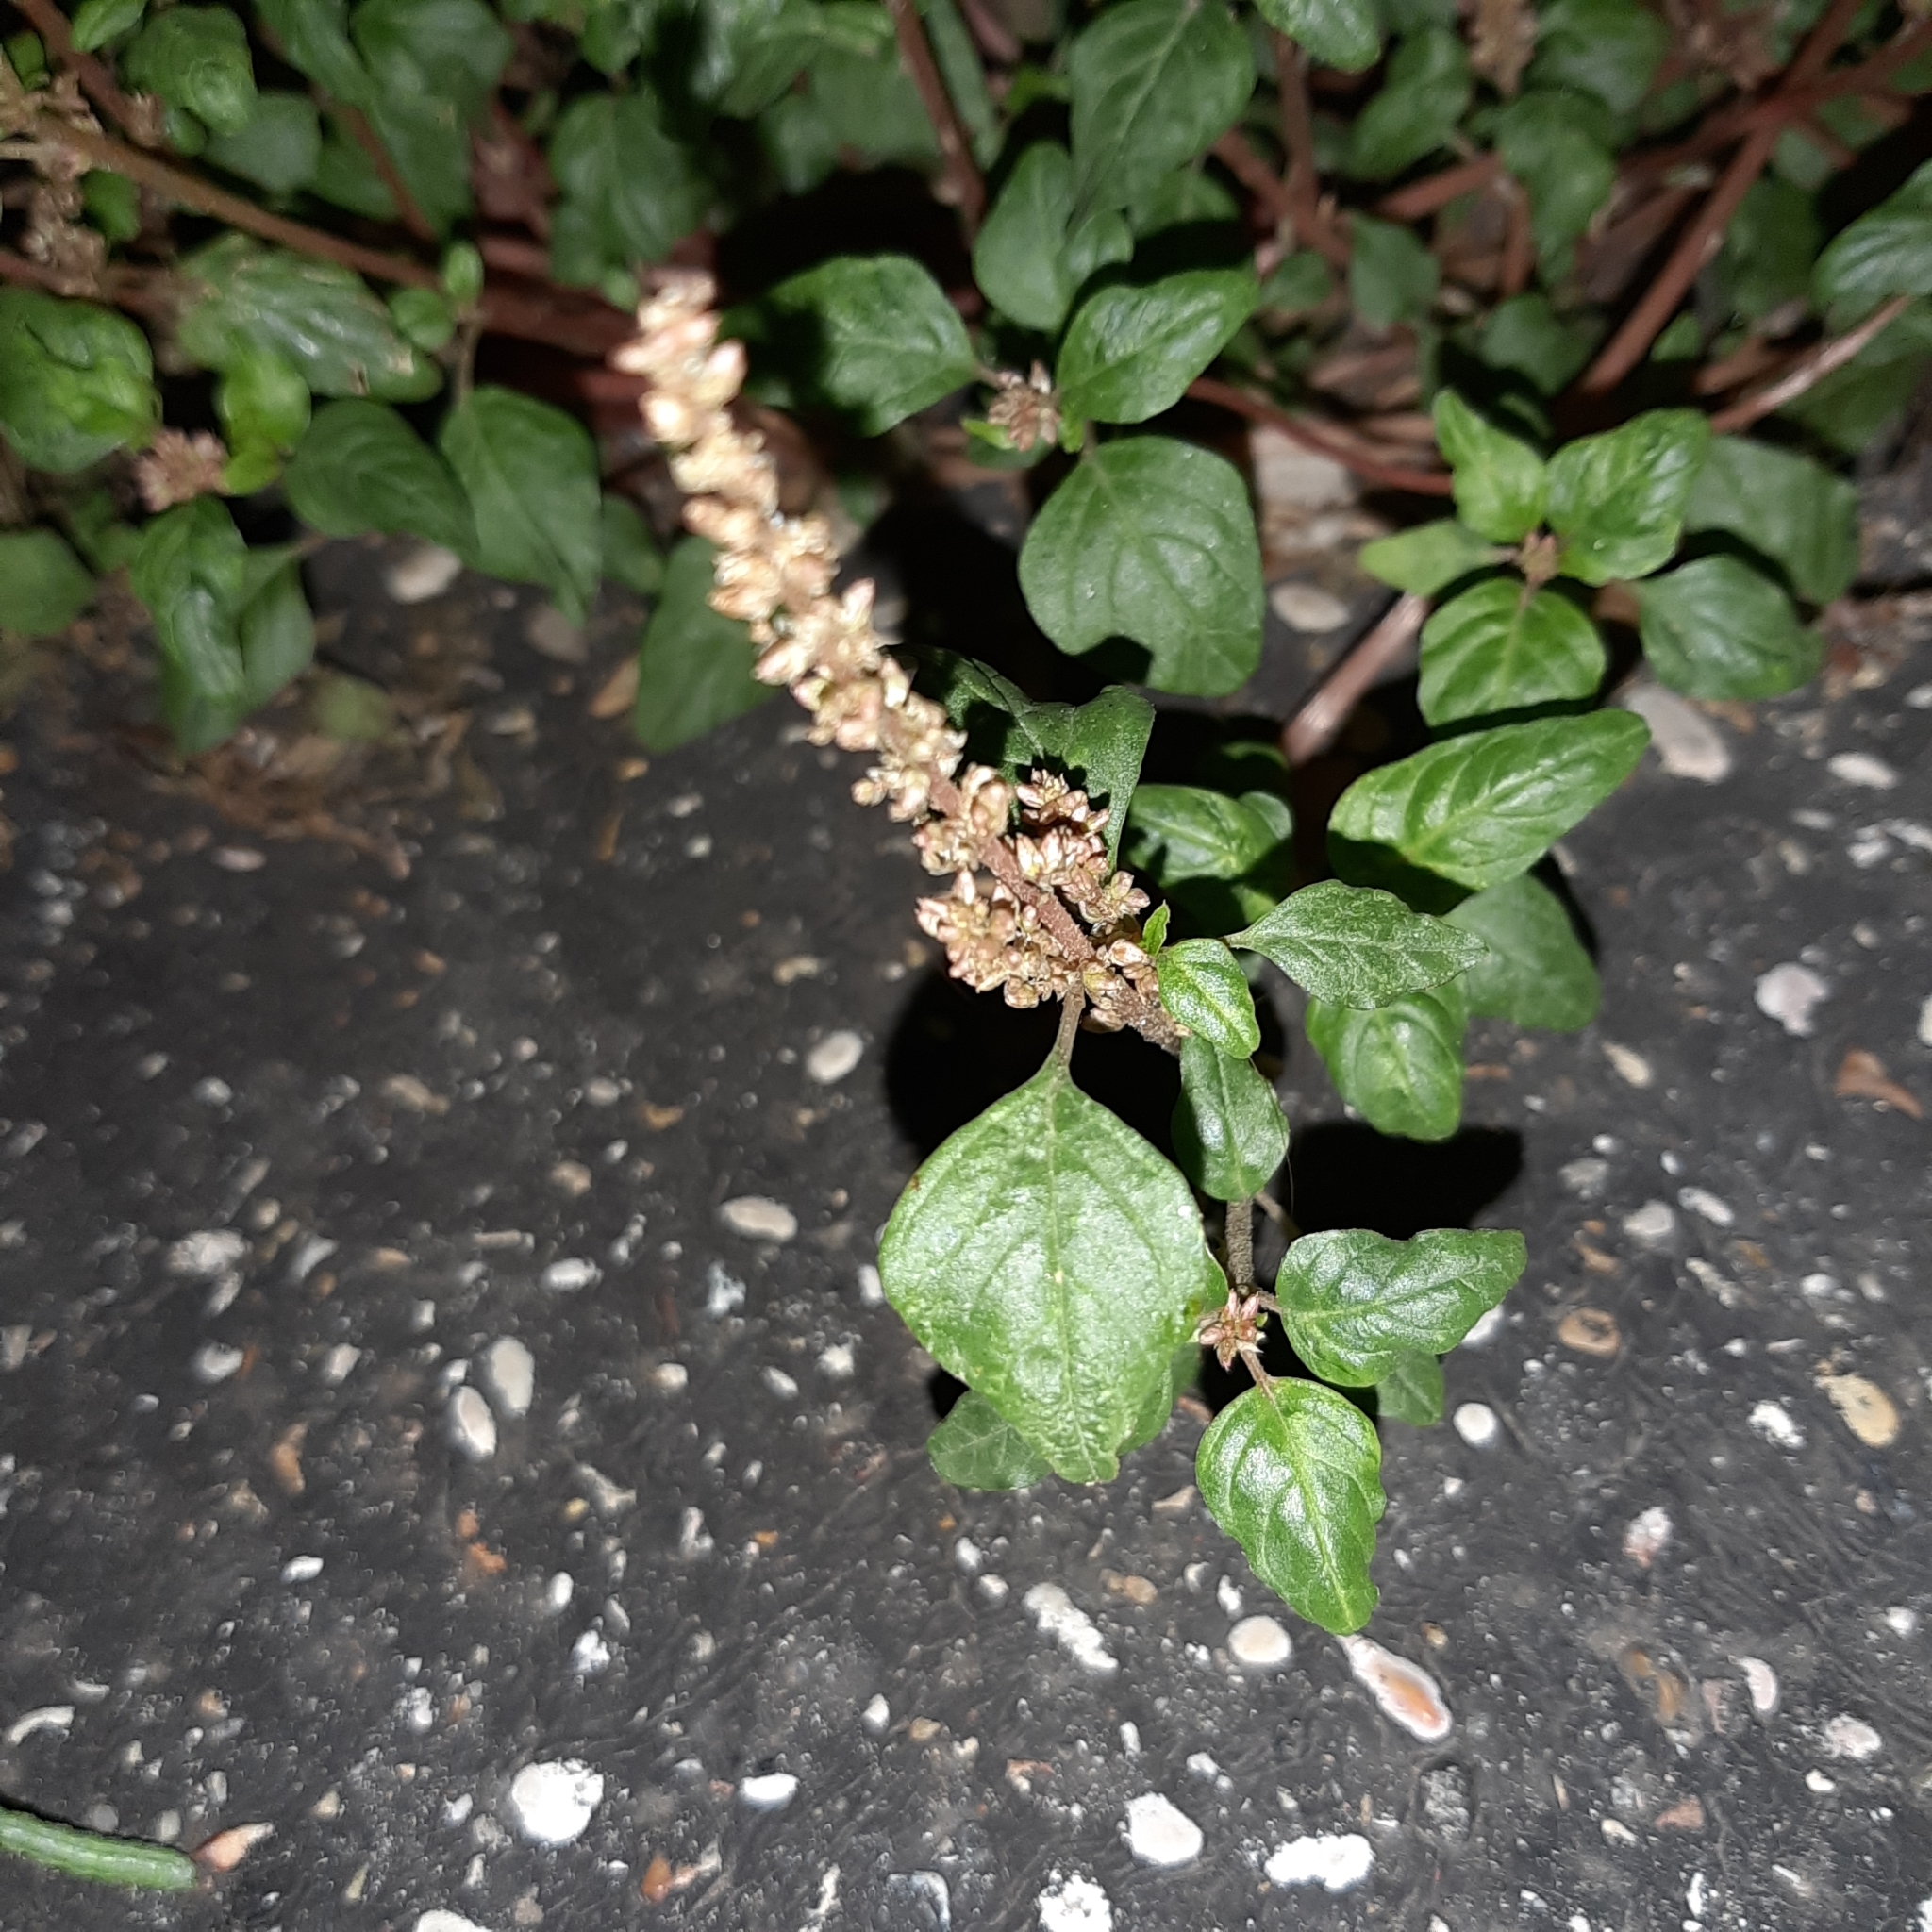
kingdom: Plantae
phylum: Tracheophyta
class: Magnoliopsida
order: Rosales
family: Urticaceae
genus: Parietaria
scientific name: Parietaria judaica
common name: Pellitory-of-the-wall
